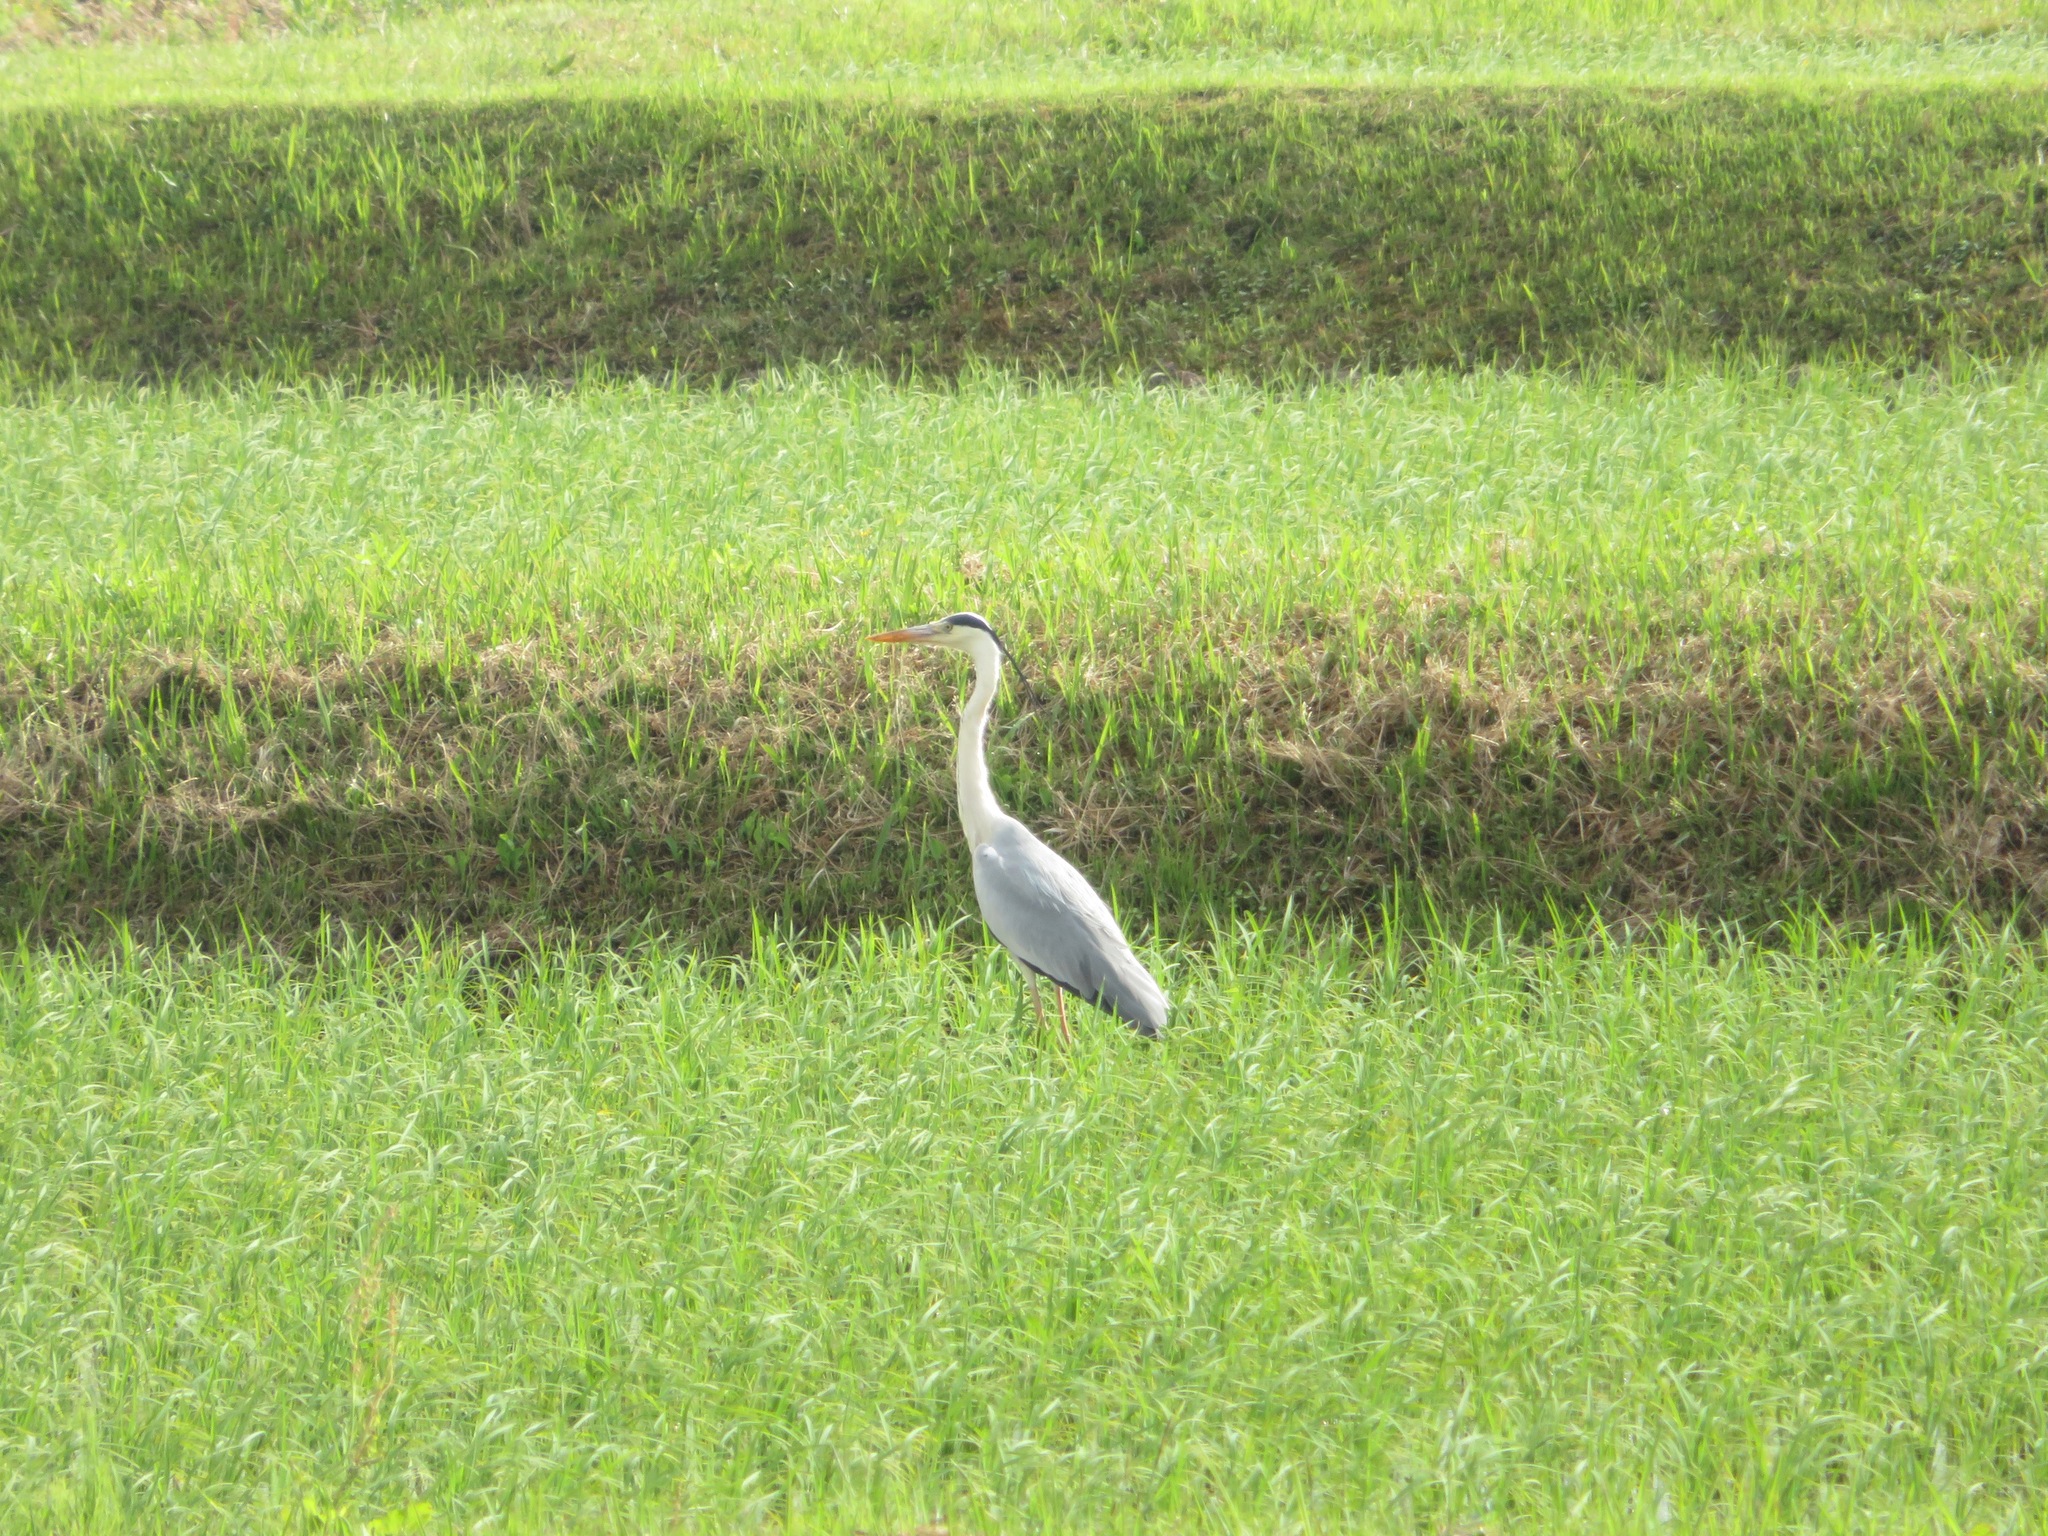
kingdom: Animalia
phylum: Chordata
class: Aves
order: Pelecaniformes
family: Ardeidae
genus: Ardea
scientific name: Ardea cinerea
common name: Grey heron
